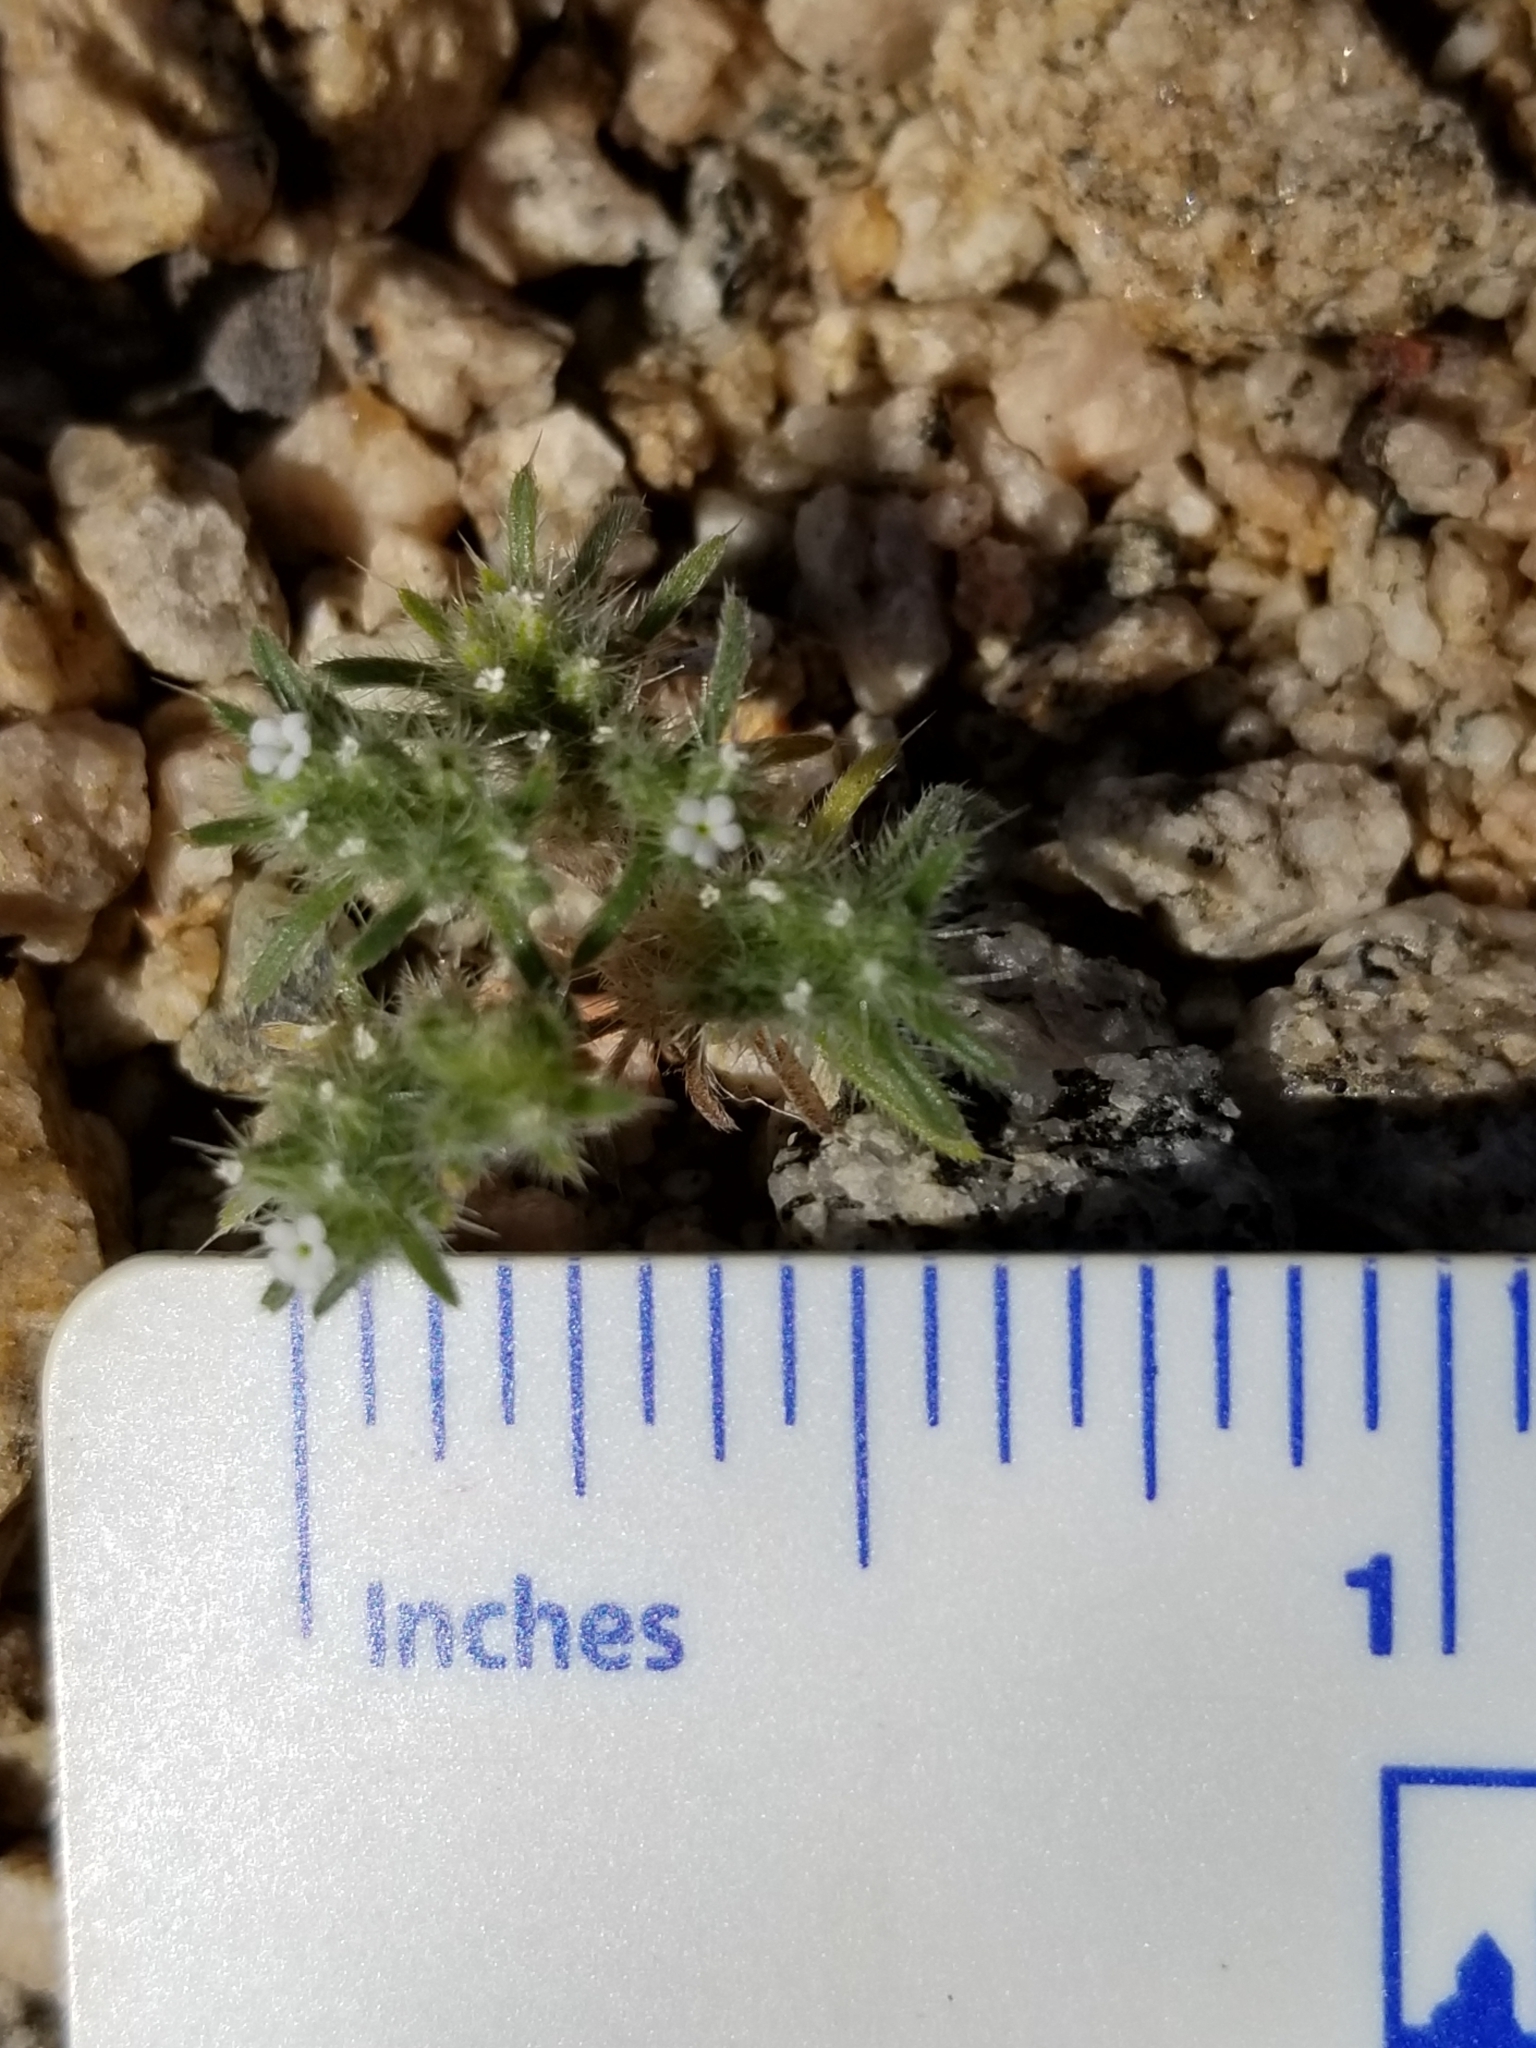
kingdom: Plantae
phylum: Tracheophyta
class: Magnoliopsida
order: Boraginales
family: Boraginaceae
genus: Greeneocharis
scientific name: Greeneocharis circumscissa
